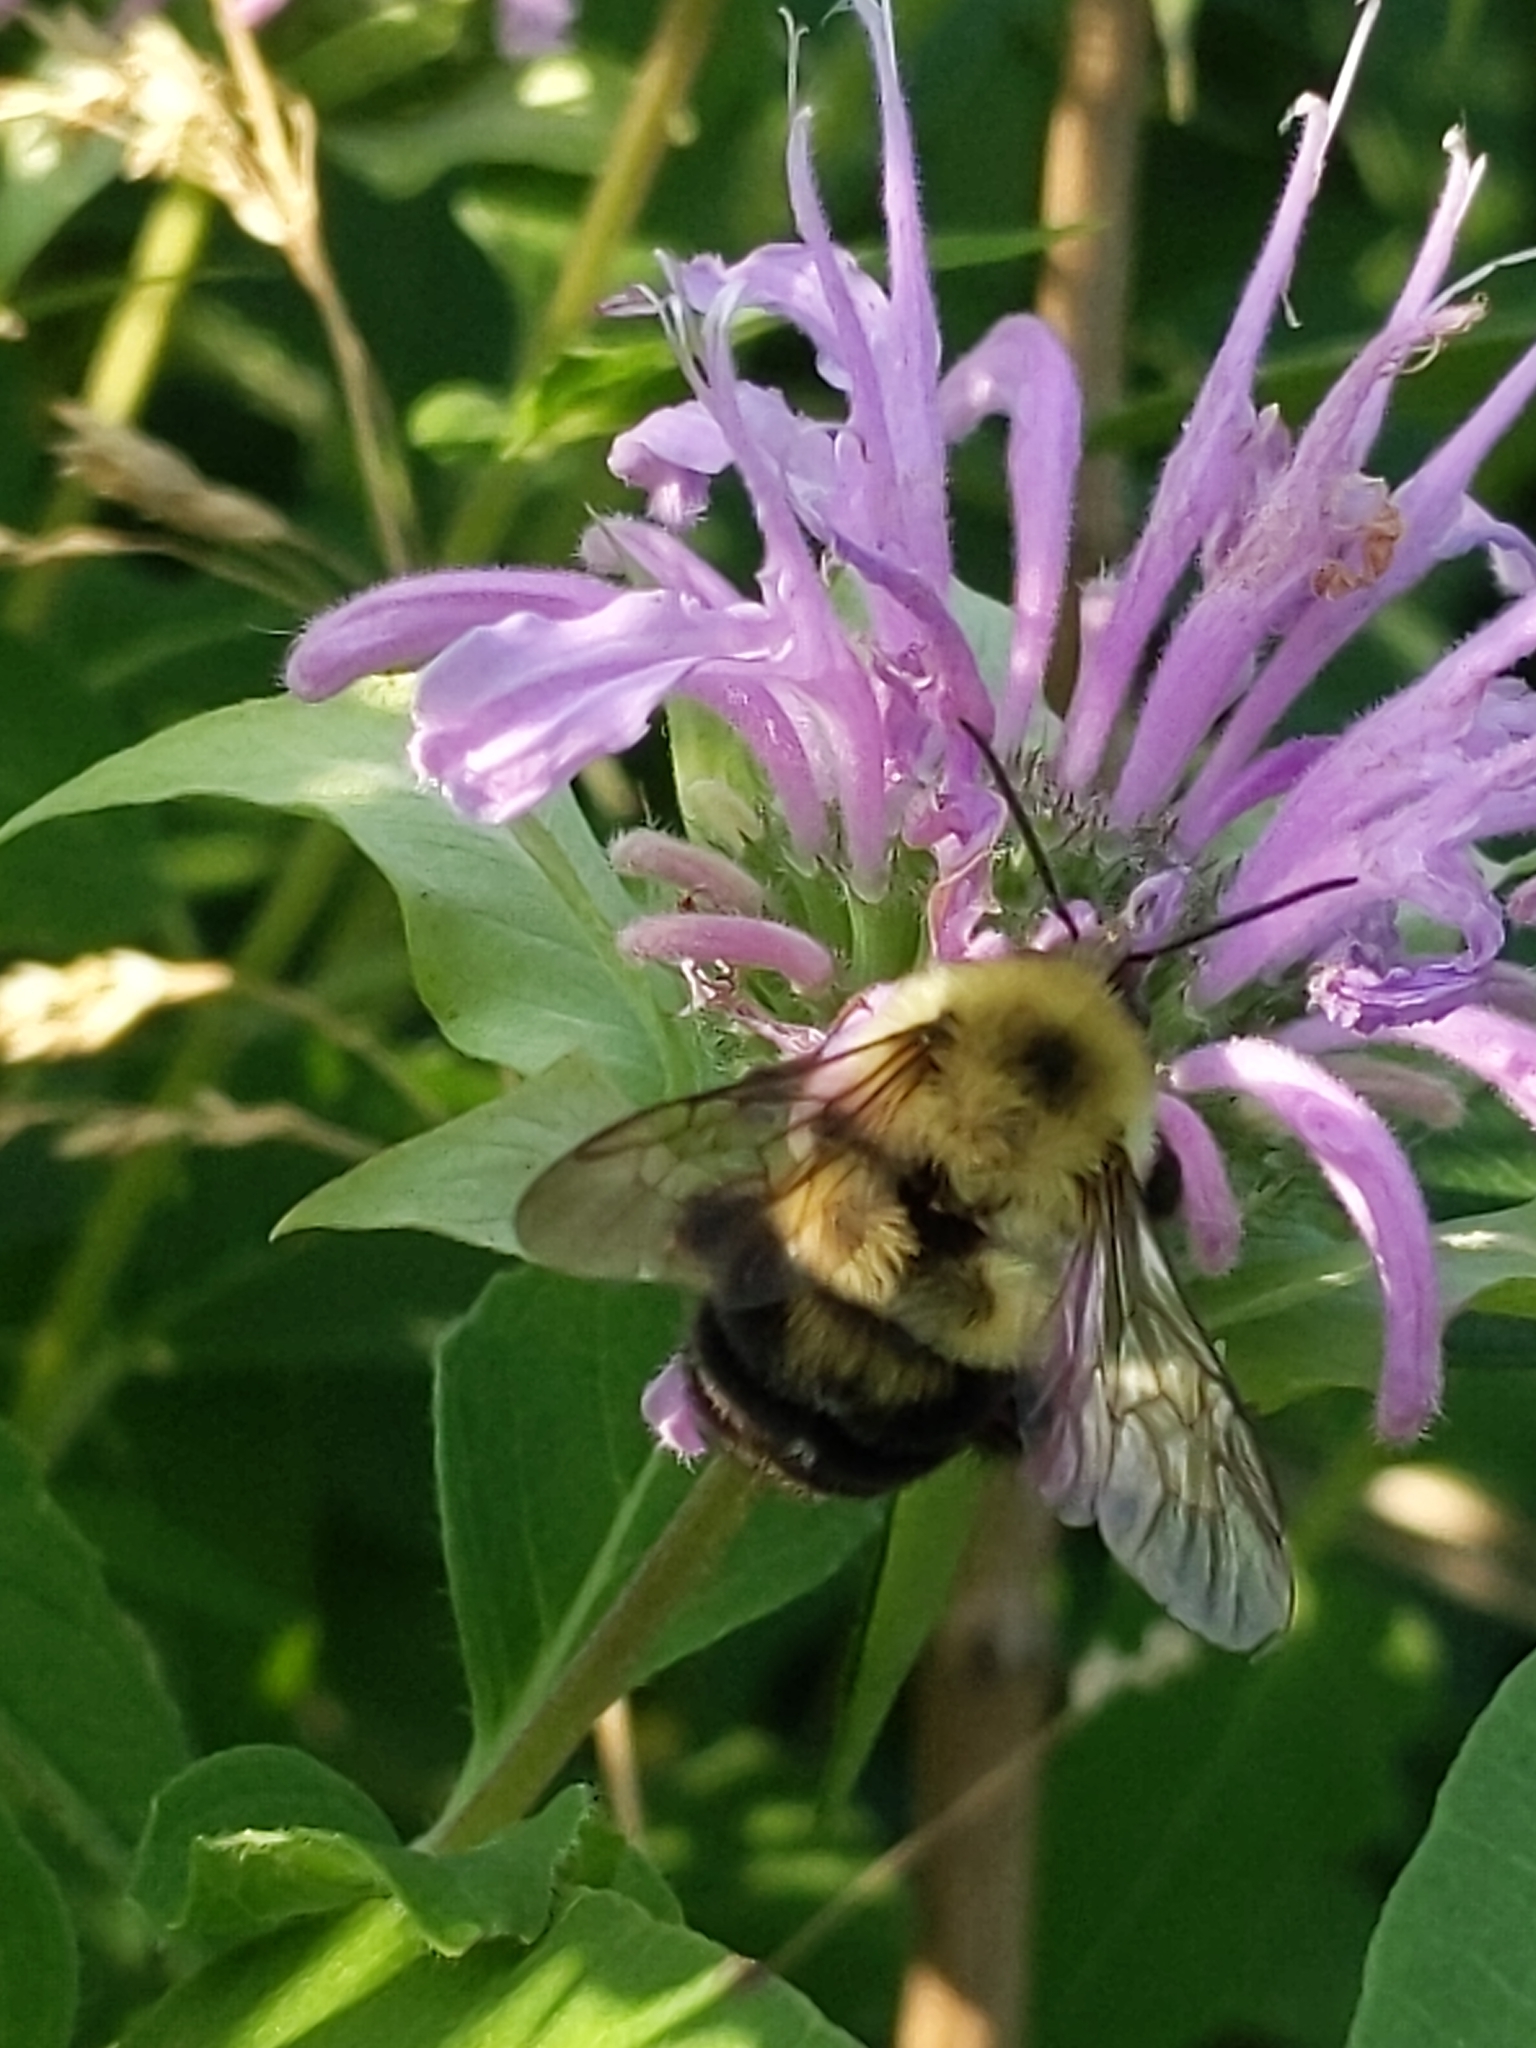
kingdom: Animalia
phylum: Arthropoda
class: Insecta
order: Hymenoptera
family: Apidae
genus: Bombus
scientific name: Bombus bimaculatus
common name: Two-spotted bumble bee
